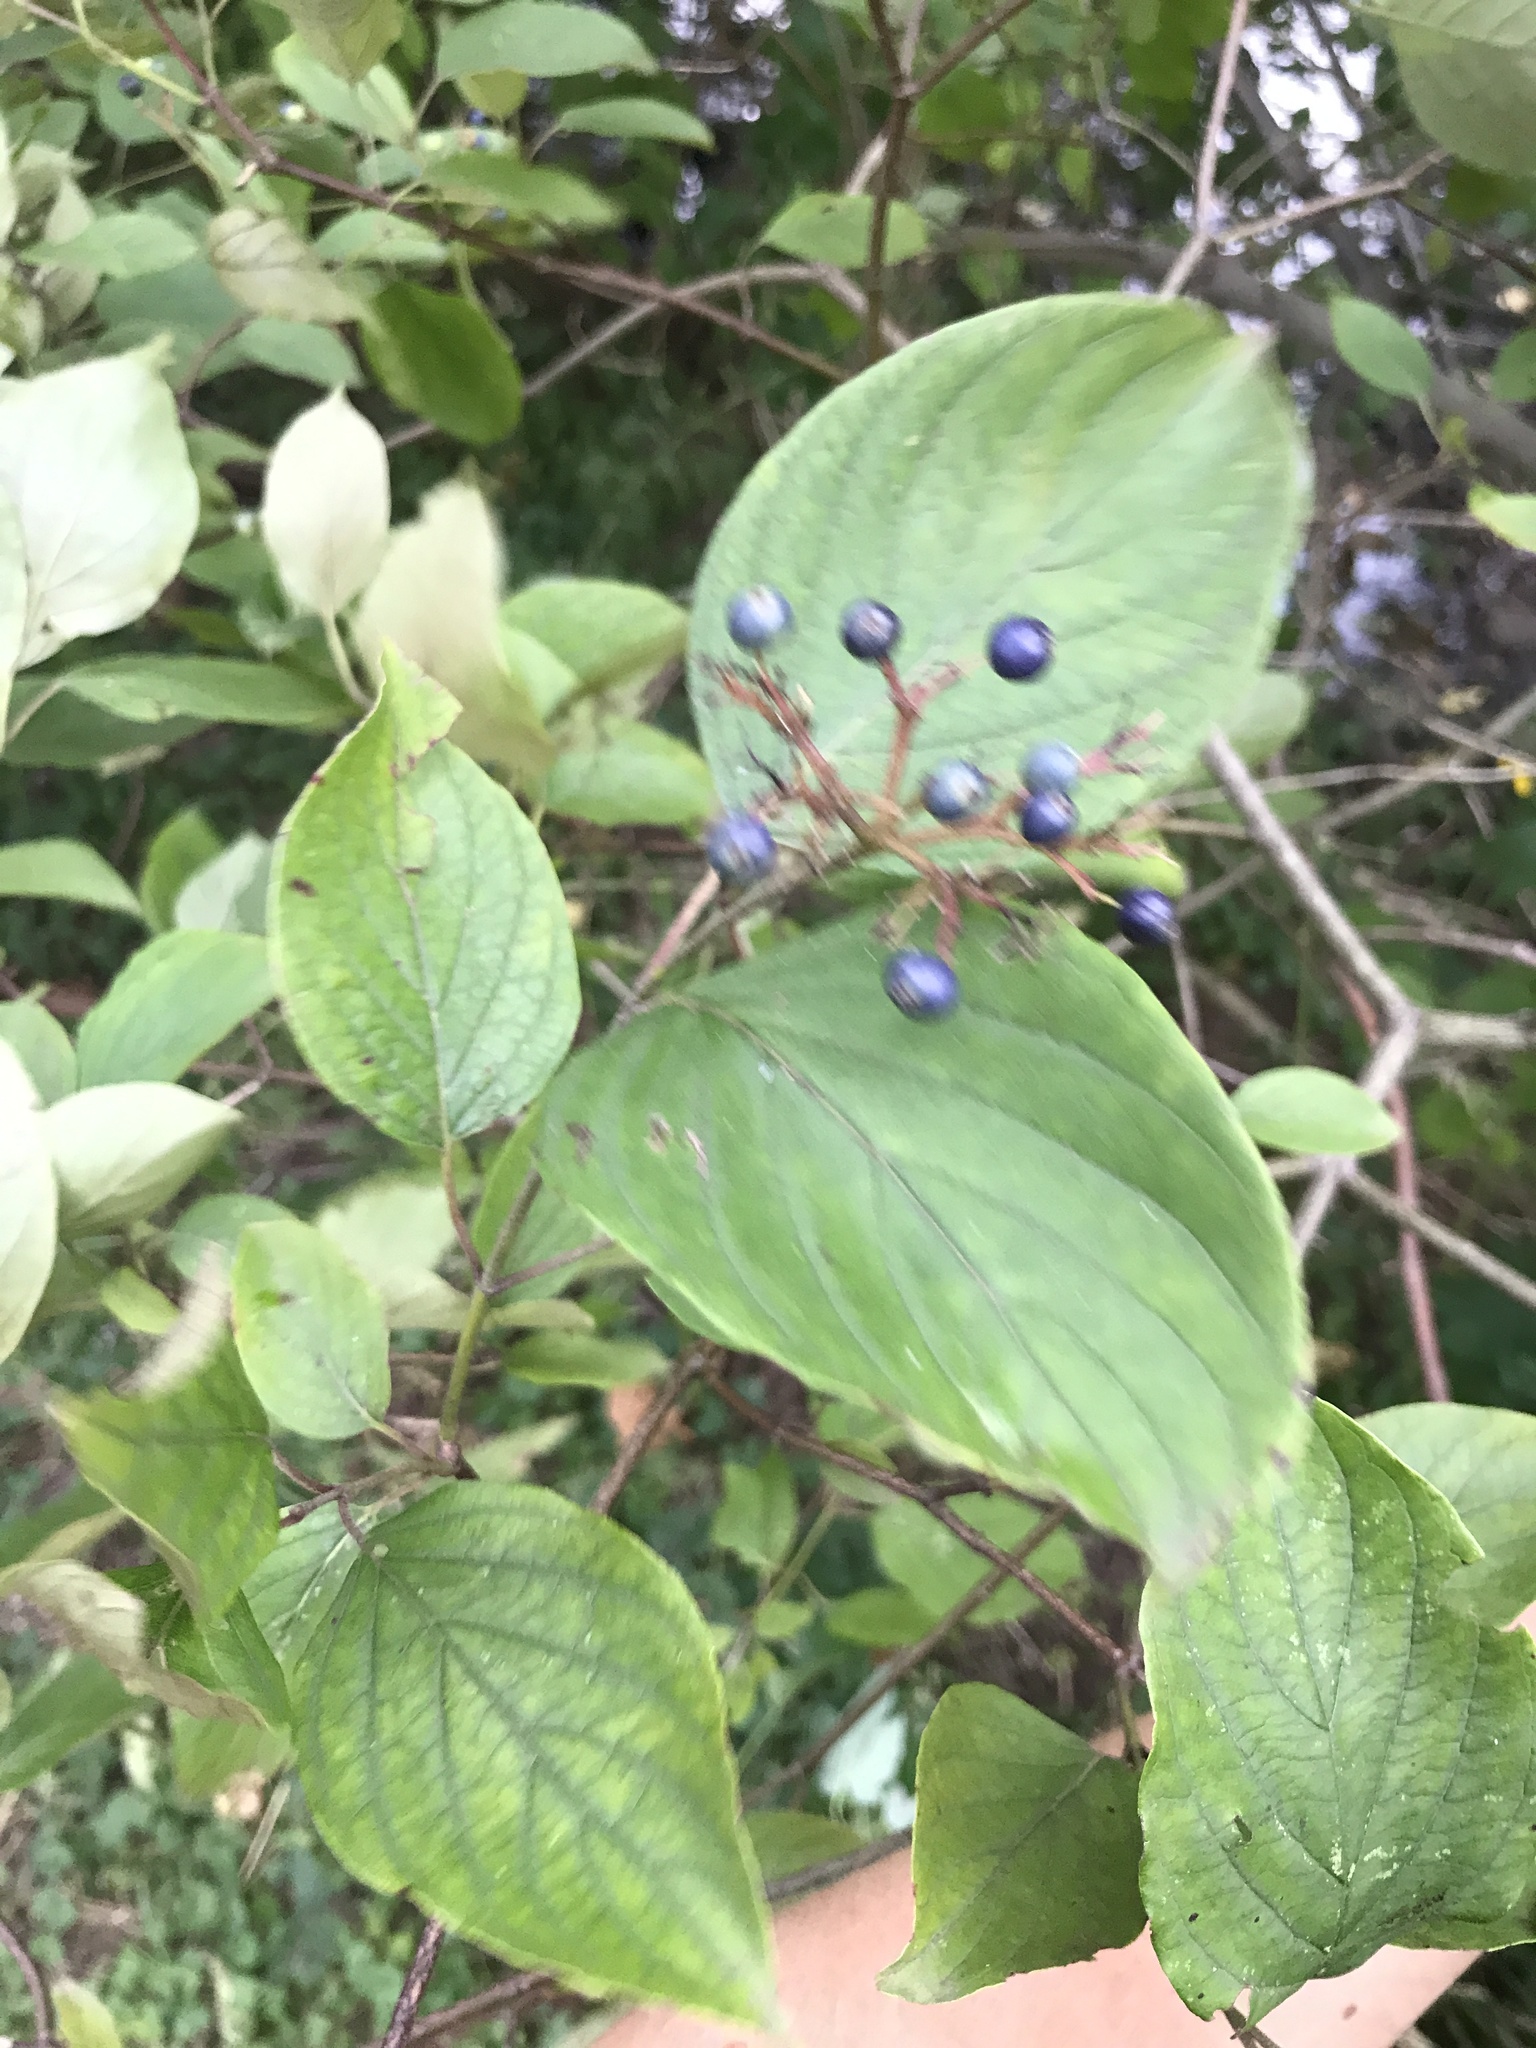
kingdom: Plantae
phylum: Tracheophyta
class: Magnoliopsida
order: Cornales
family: Cornaceae
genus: Cornus
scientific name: Cornus amomum
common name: Silky dogwood
